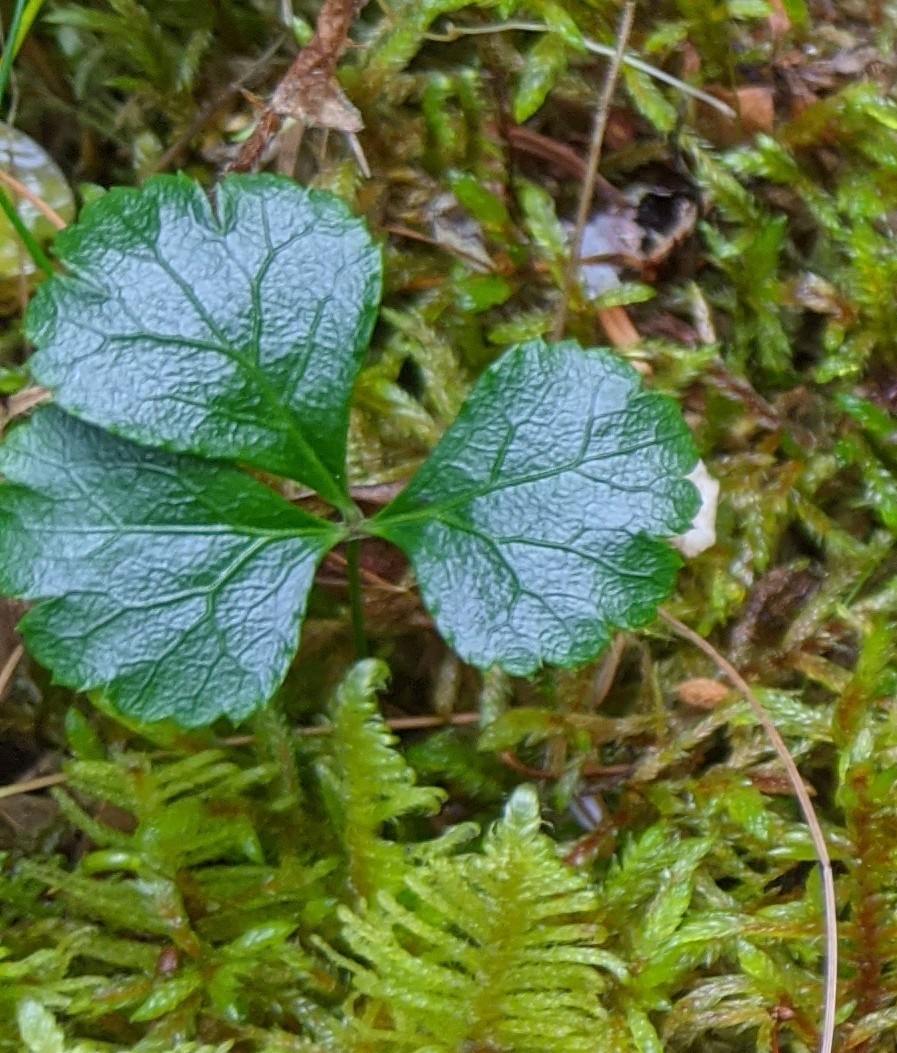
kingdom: Plantae
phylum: Tracheophyta
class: Magnoliopsida
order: Ranunculales
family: Ranunculaceae
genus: Coptis
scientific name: Coptis trifolia
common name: Canker-root
